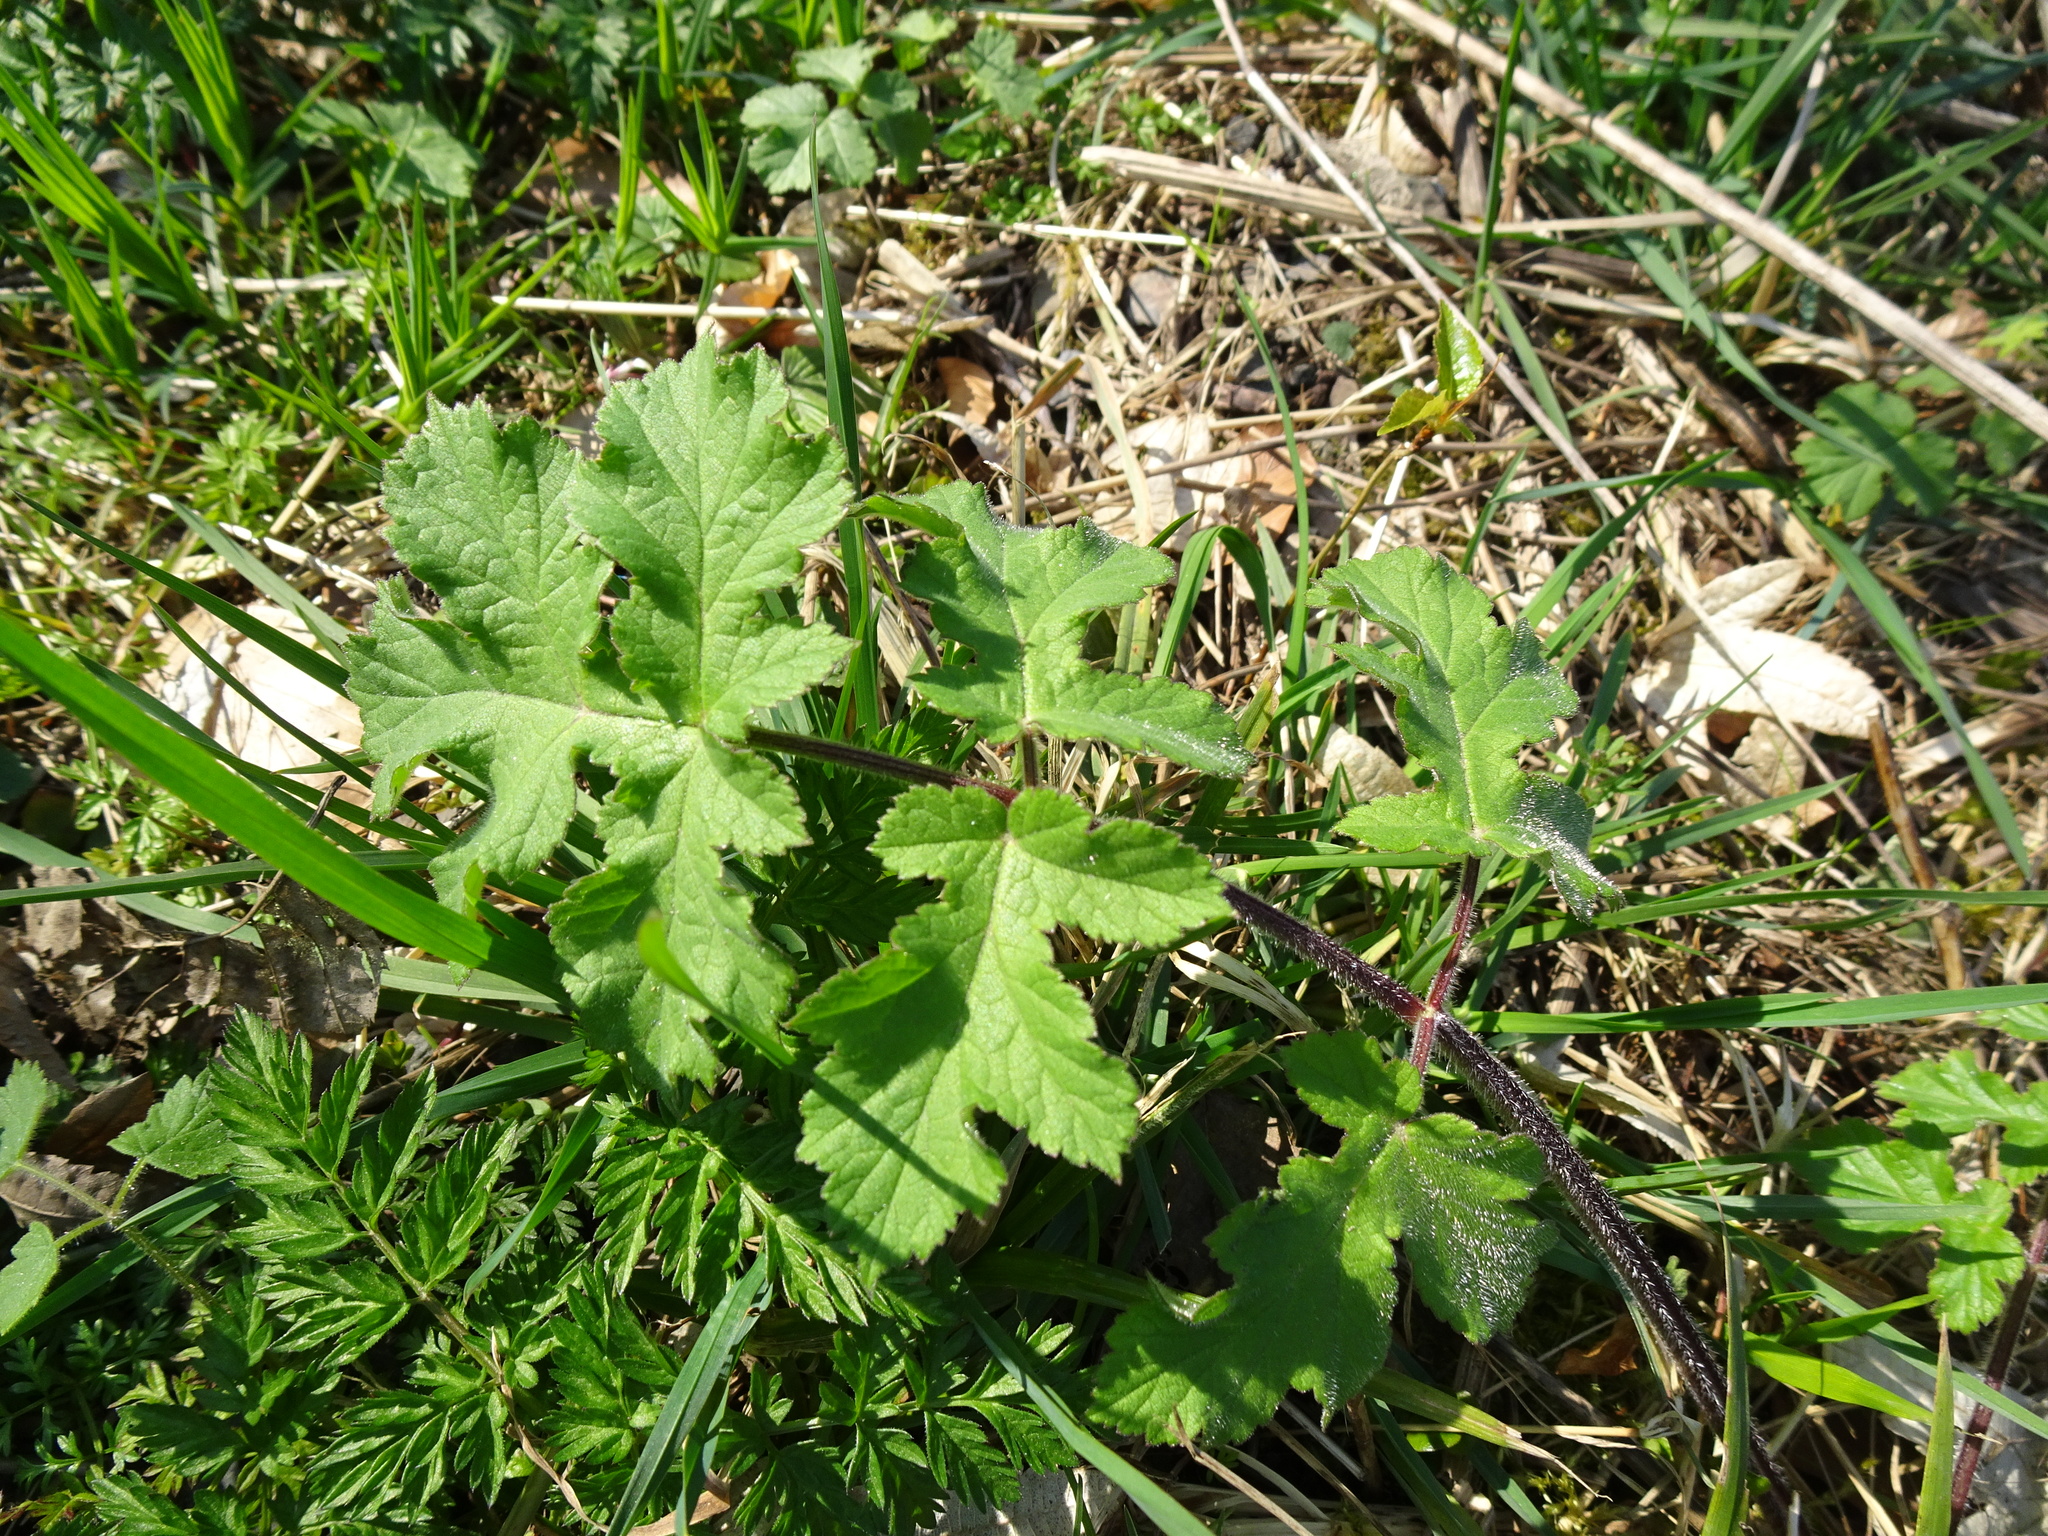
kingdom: Plantae
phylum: Tracheophyta
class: Magnoliopsida
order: Apiales
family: Apiaceae
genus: Heracleum
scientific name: Heracleum sphondylium
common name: Hogweed
